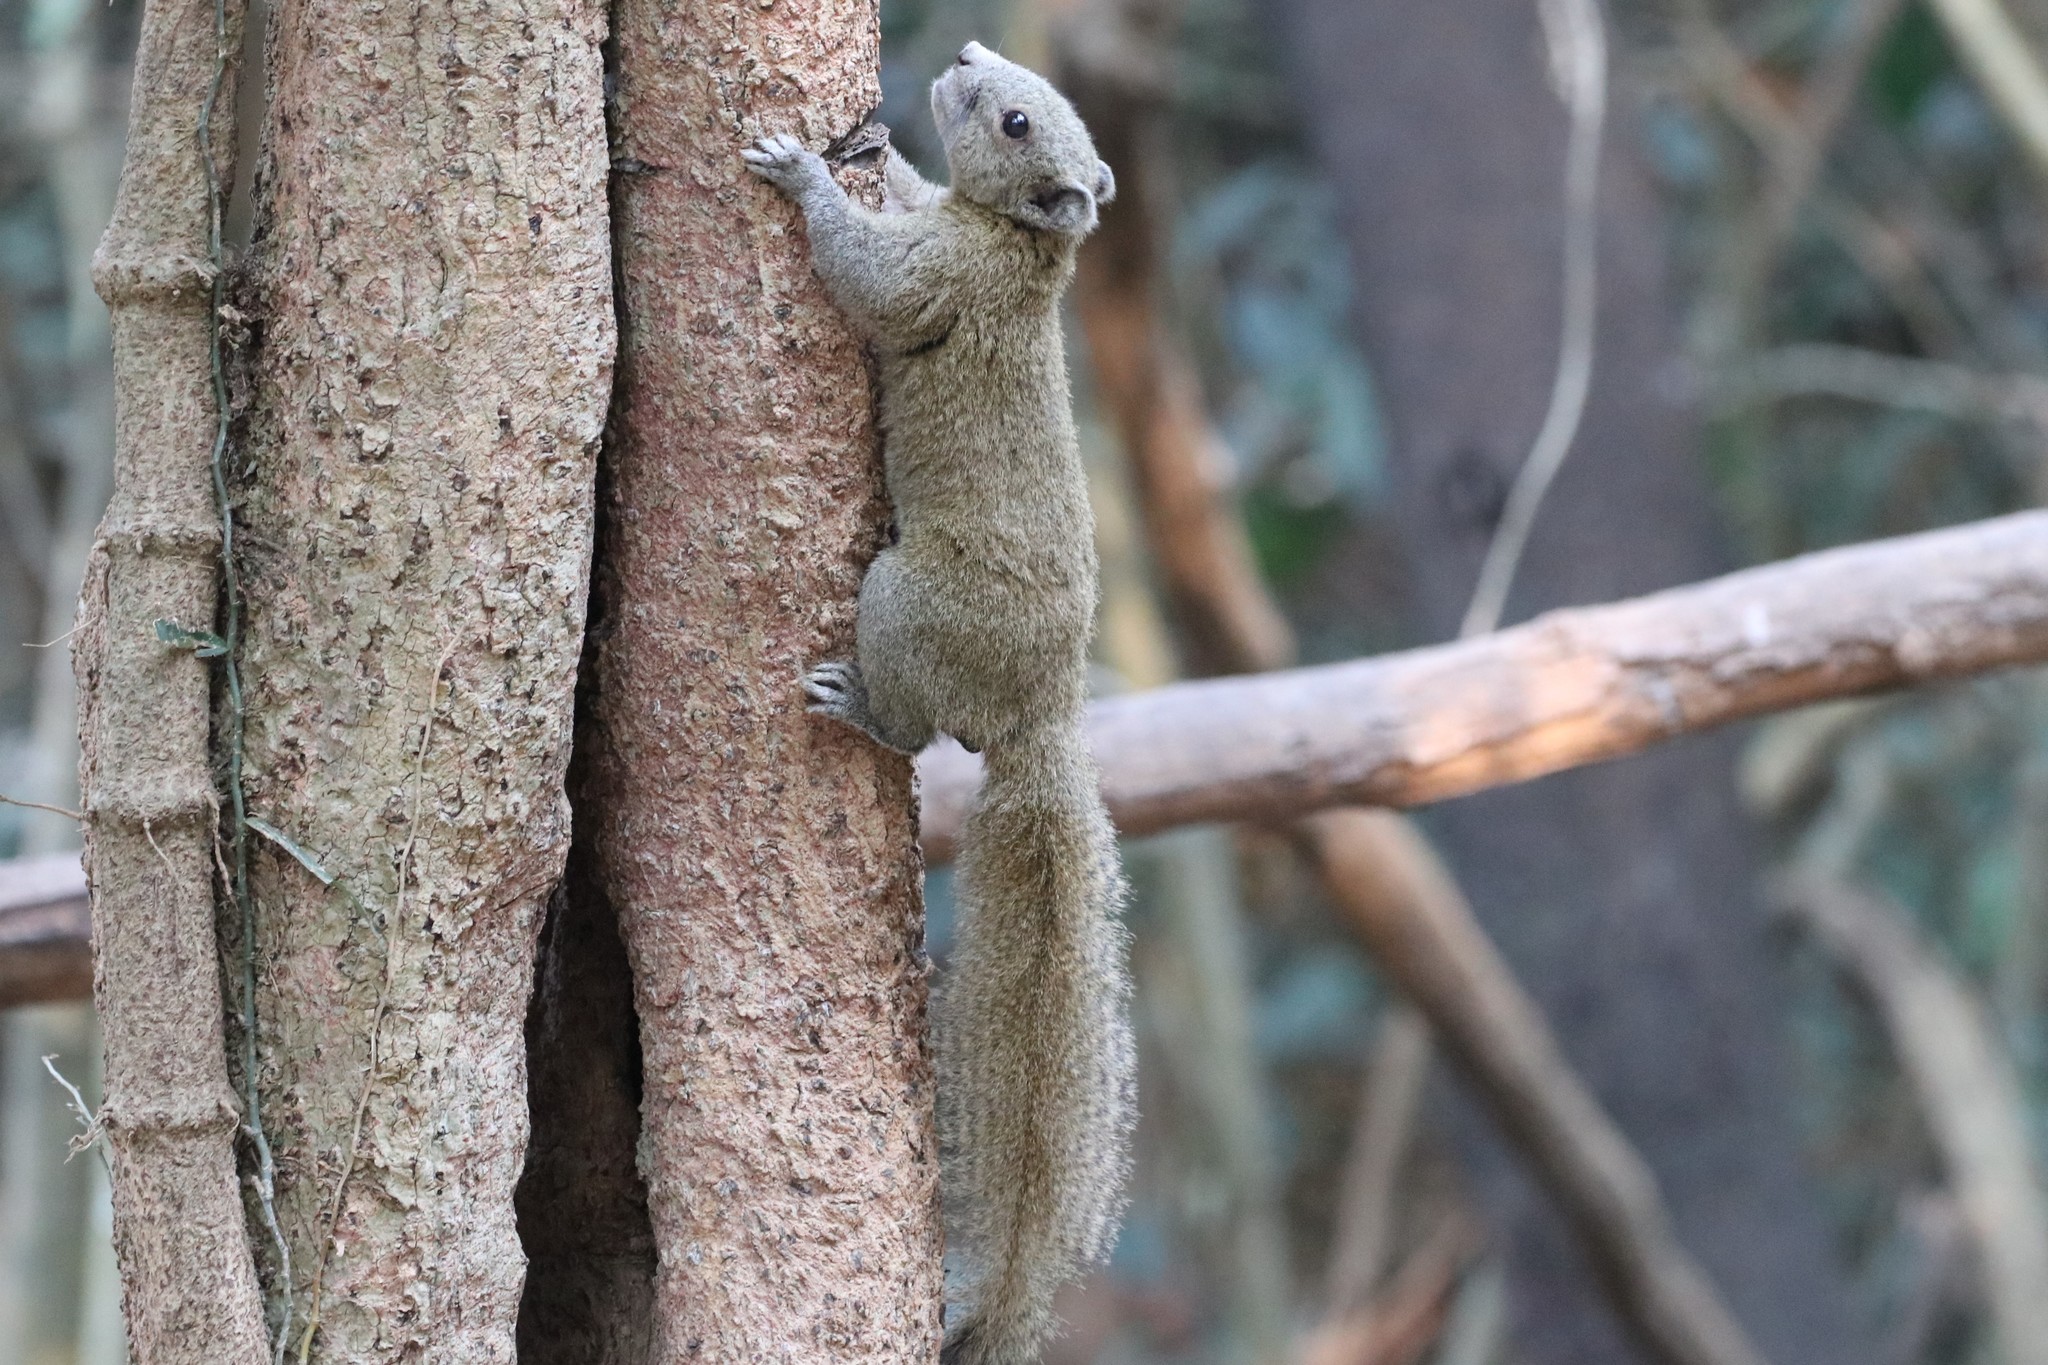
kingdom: Animalia
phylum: Chordata
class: Mammalia
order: Rodentia
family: Sciuridae
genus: Callosciurus
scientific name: Callosciurus caniceps
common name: Gray-bellied squirrel
